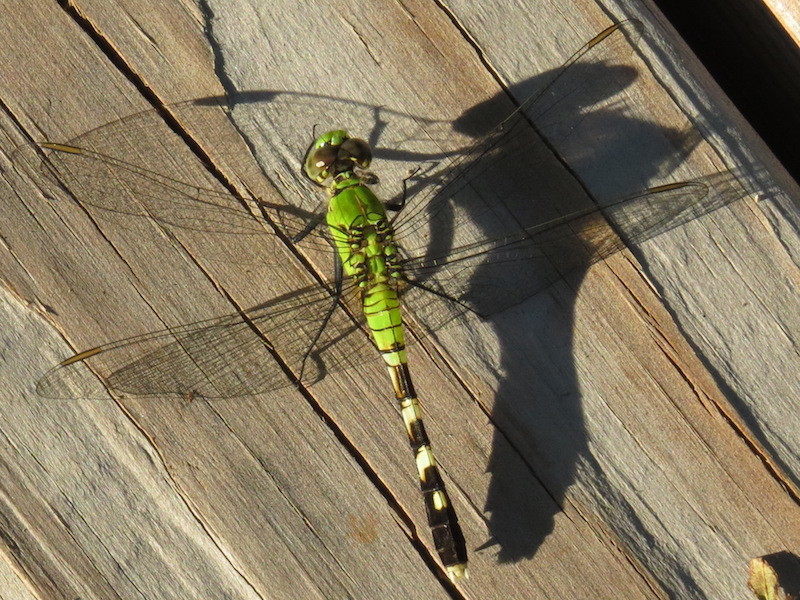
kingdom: Animalia
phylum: Arthropoda
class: Insecta
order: Odonata
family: Libellulidae
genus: Erythemis
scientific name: Erythemis simplicicollis
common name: Eastern pondhawk
